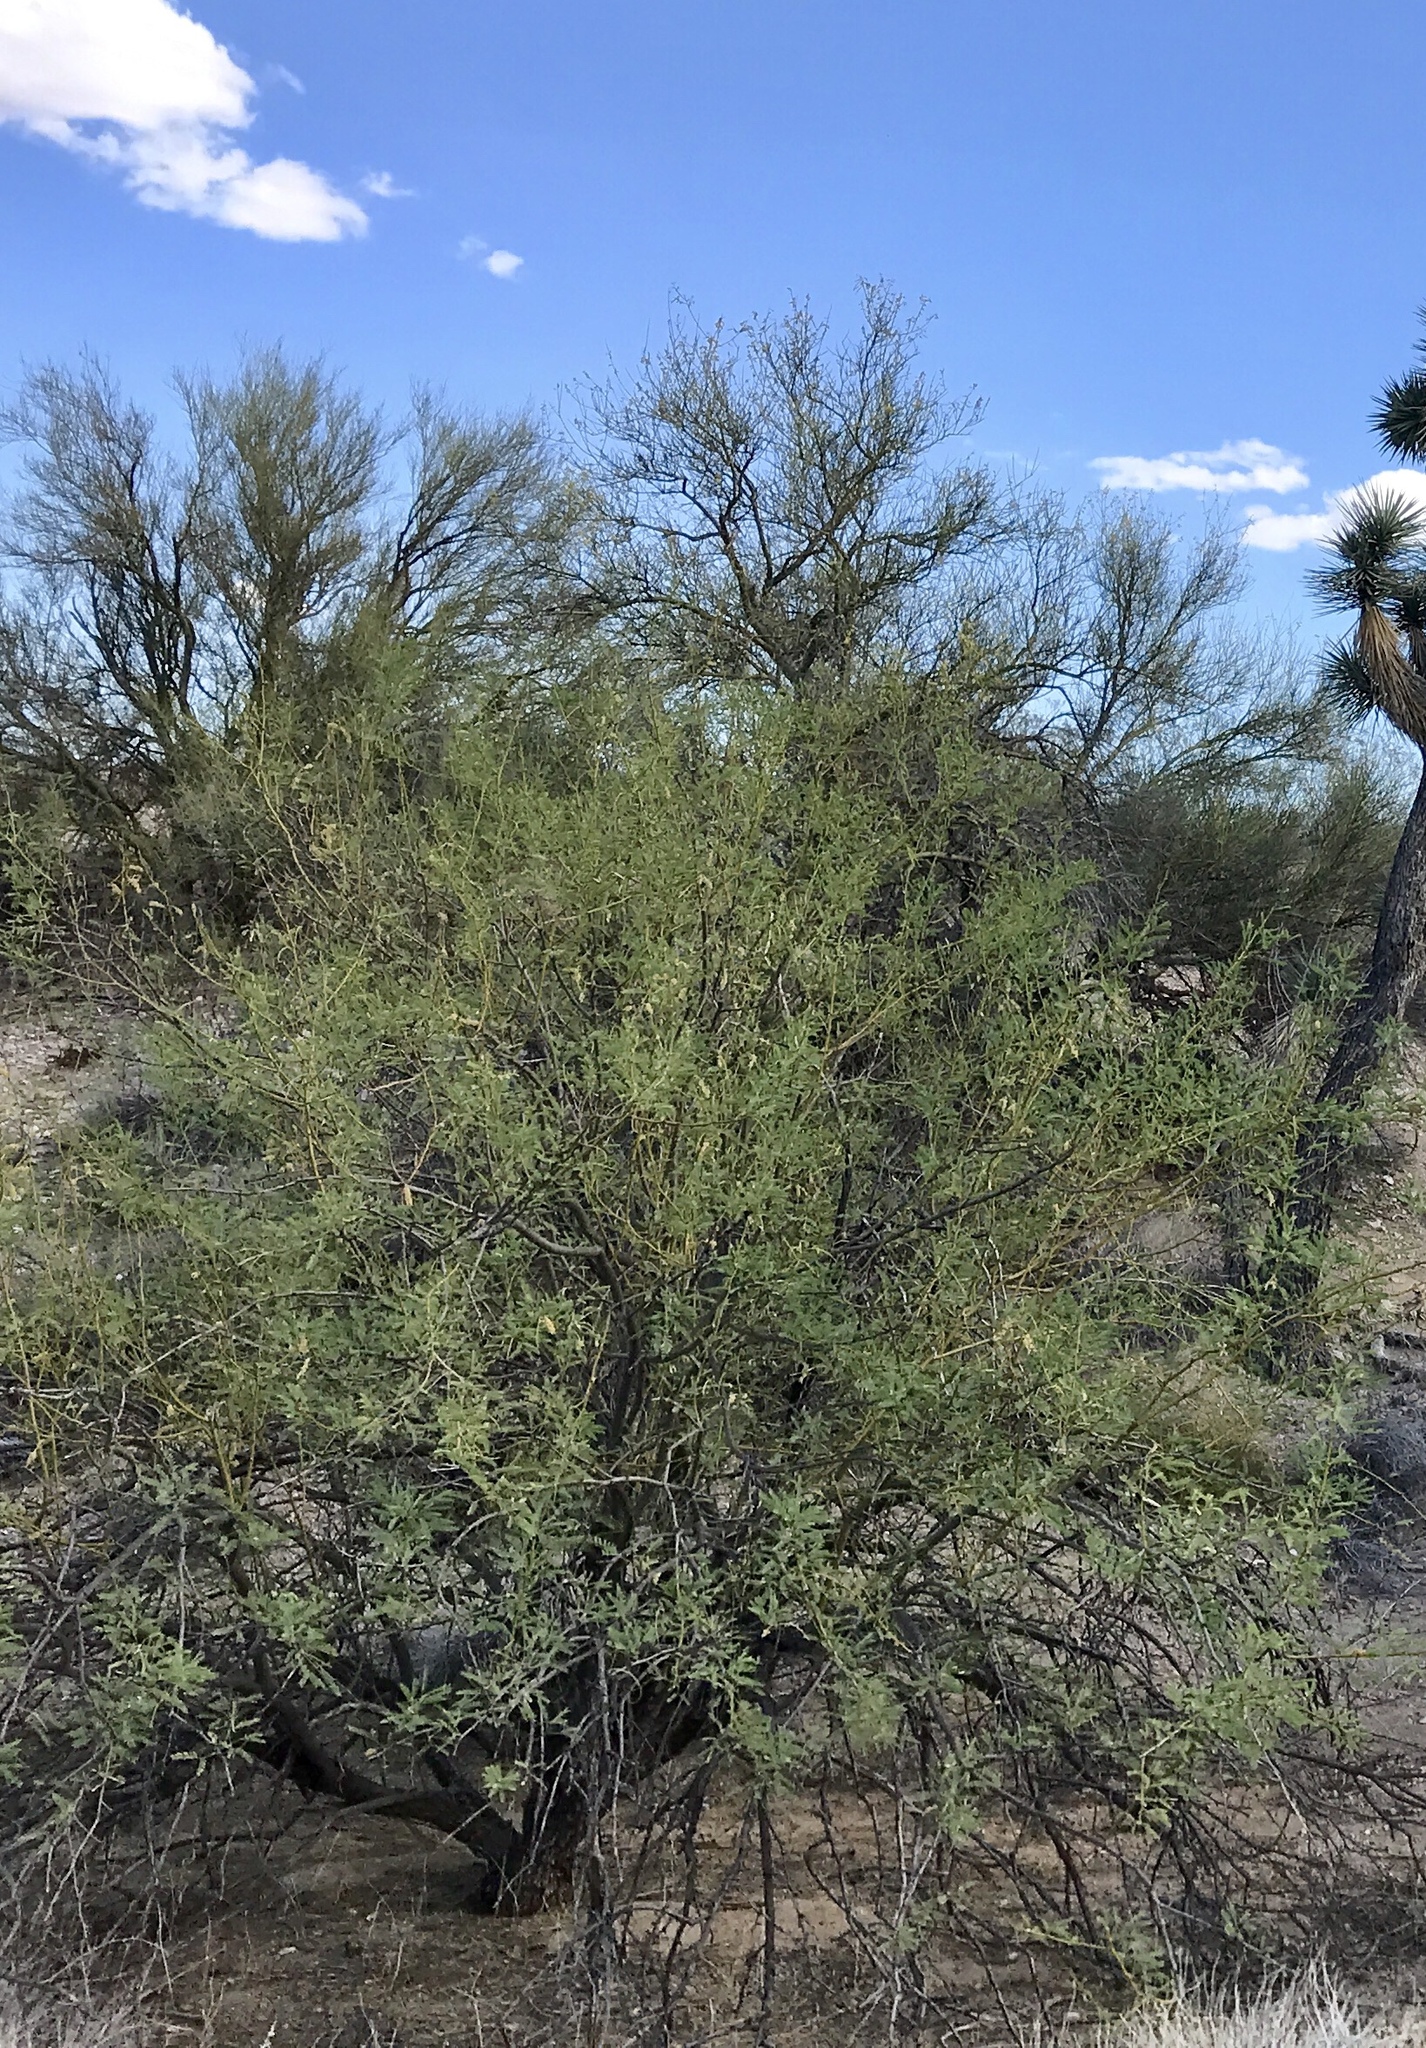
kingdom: Plantae
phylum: Tracheophyta
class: Magnoliopsida
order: Fabales
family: Fabaceae
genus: Senegalia
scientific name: Senegalia greggii
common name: Texas-mimosa
